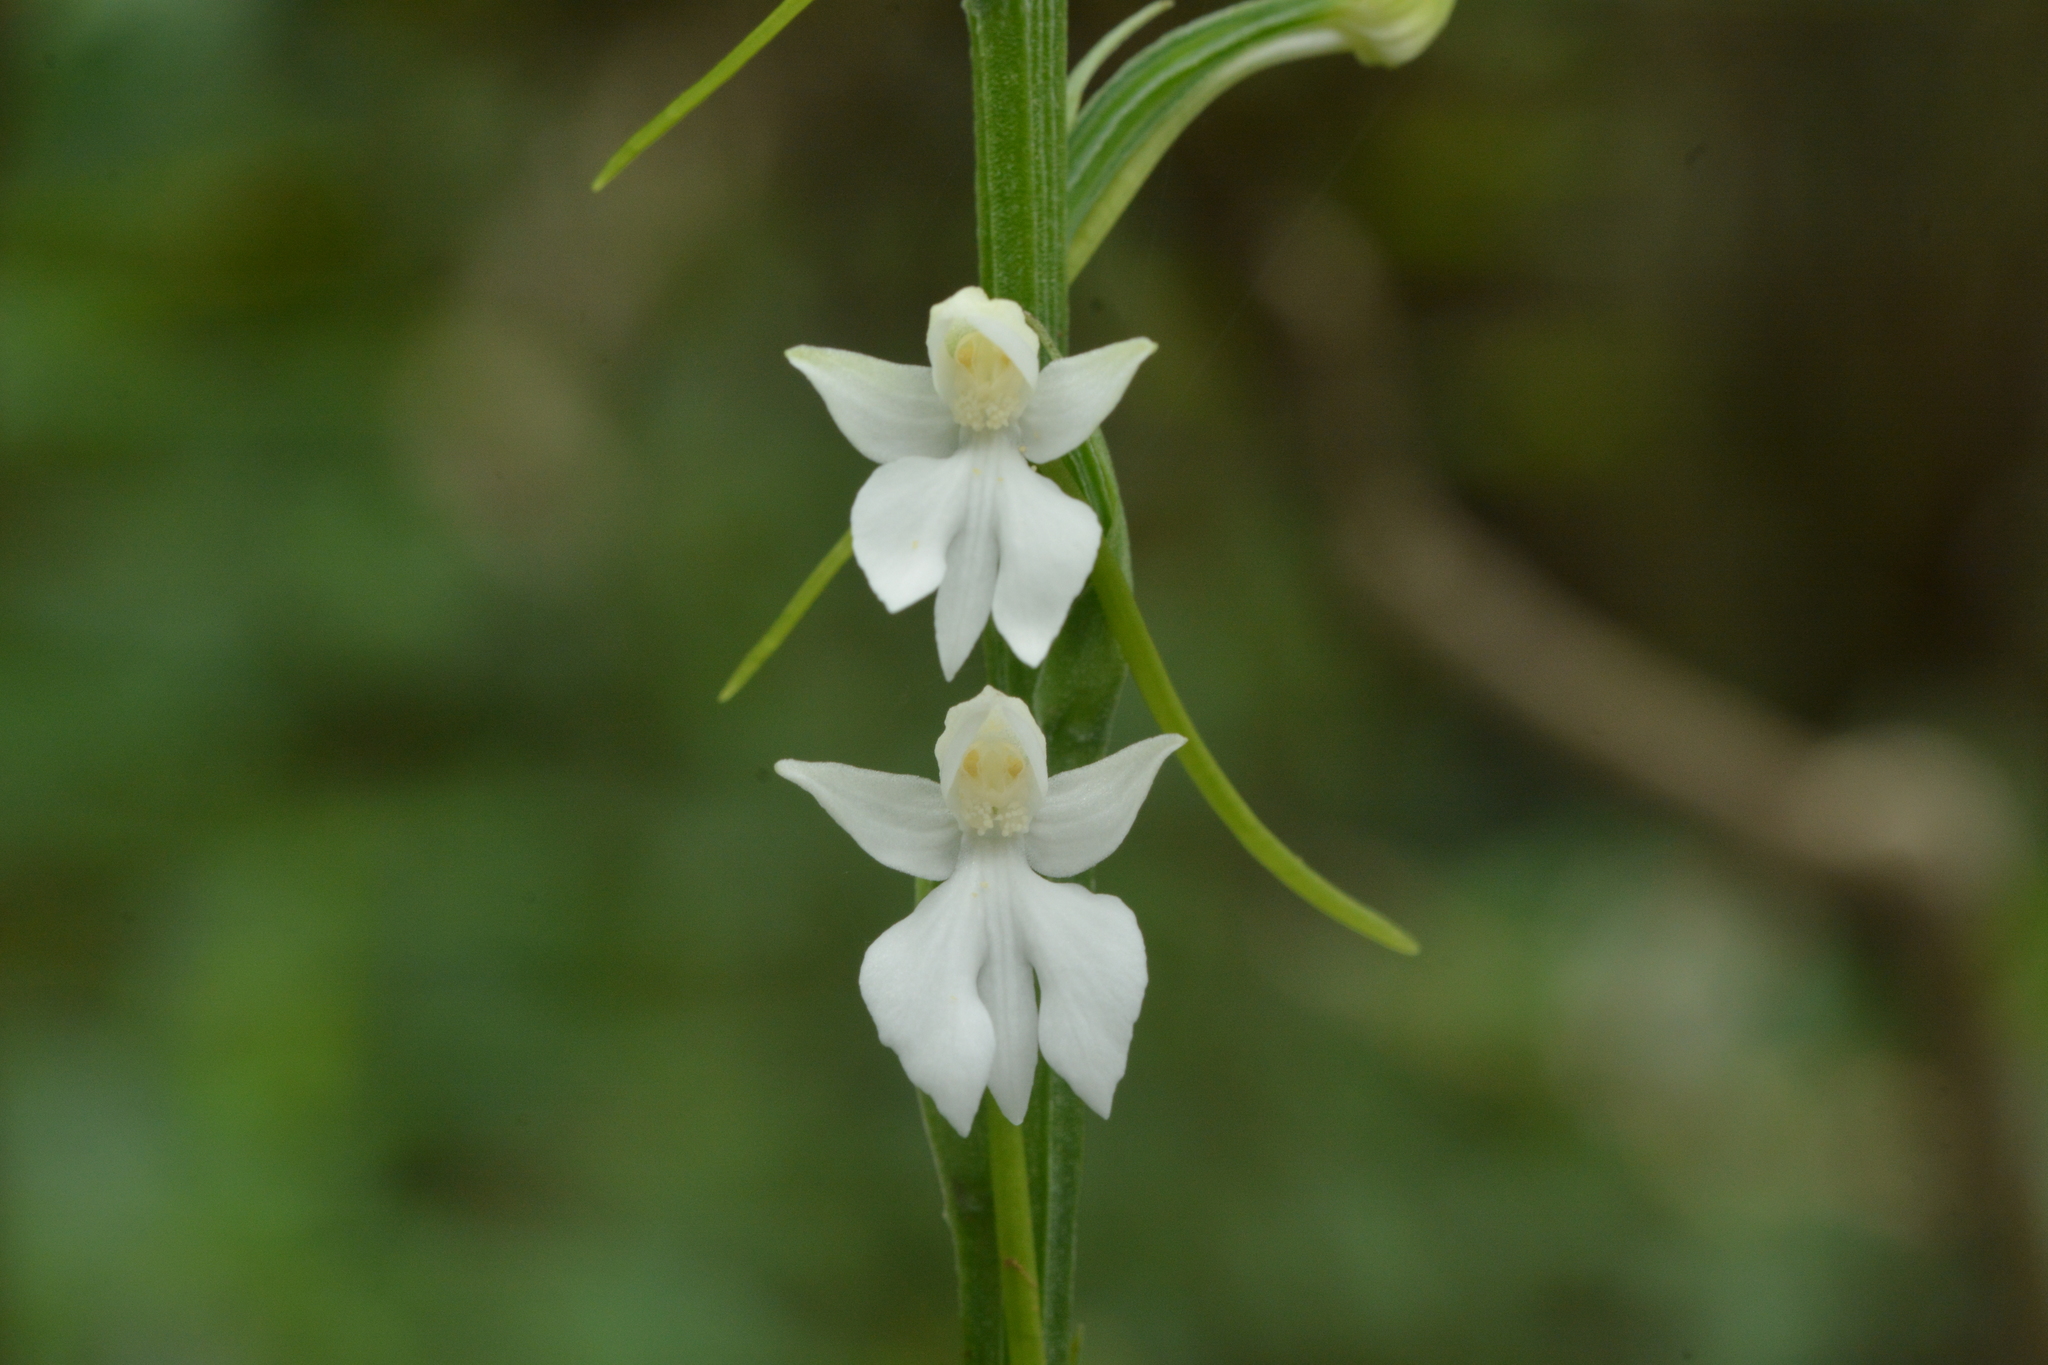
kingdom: Plantae
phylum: Tracheophyta
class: Liliopsida
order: Asparagales
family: Orchidaceae
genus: Habenaria
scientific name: Habenaria plantaginea
